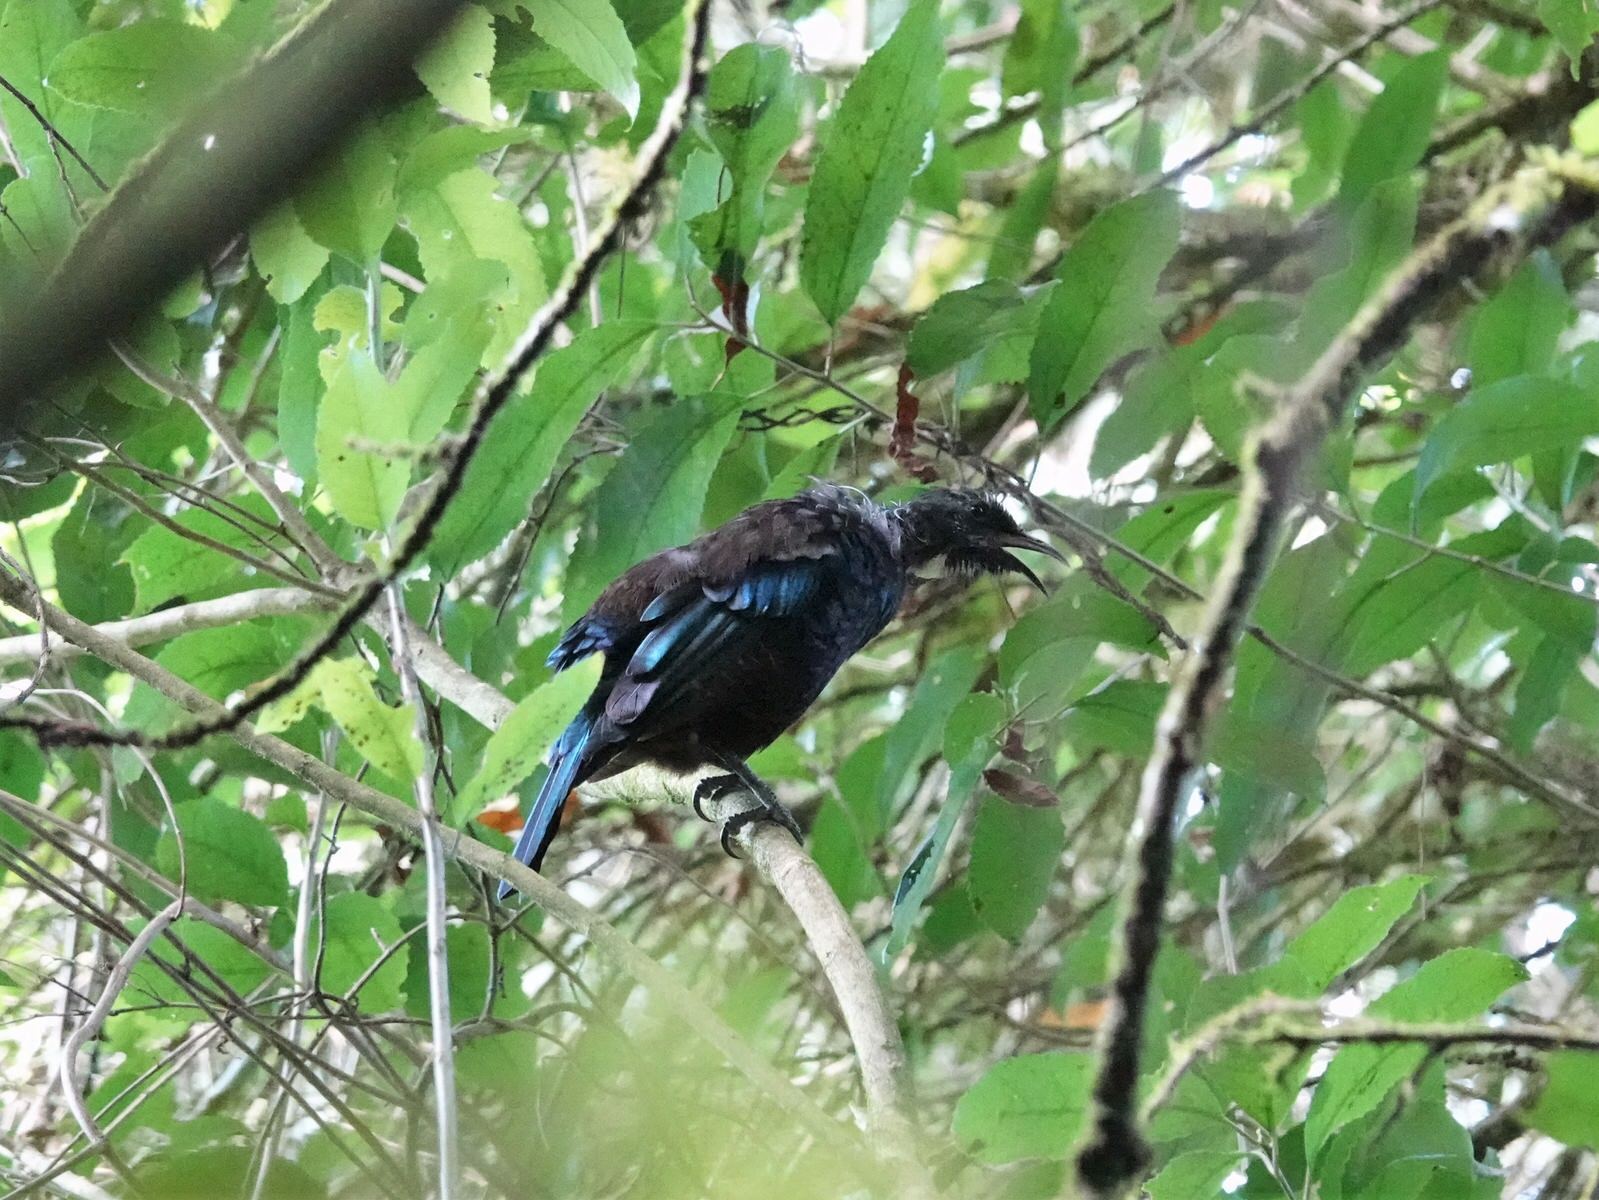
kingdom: Animalia
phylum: Chordata
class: Aves
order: Passeriformes
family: Meliphagidae
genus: Prosthemadera
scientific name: Prosthemadera novaeseelandiae
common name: Tui
